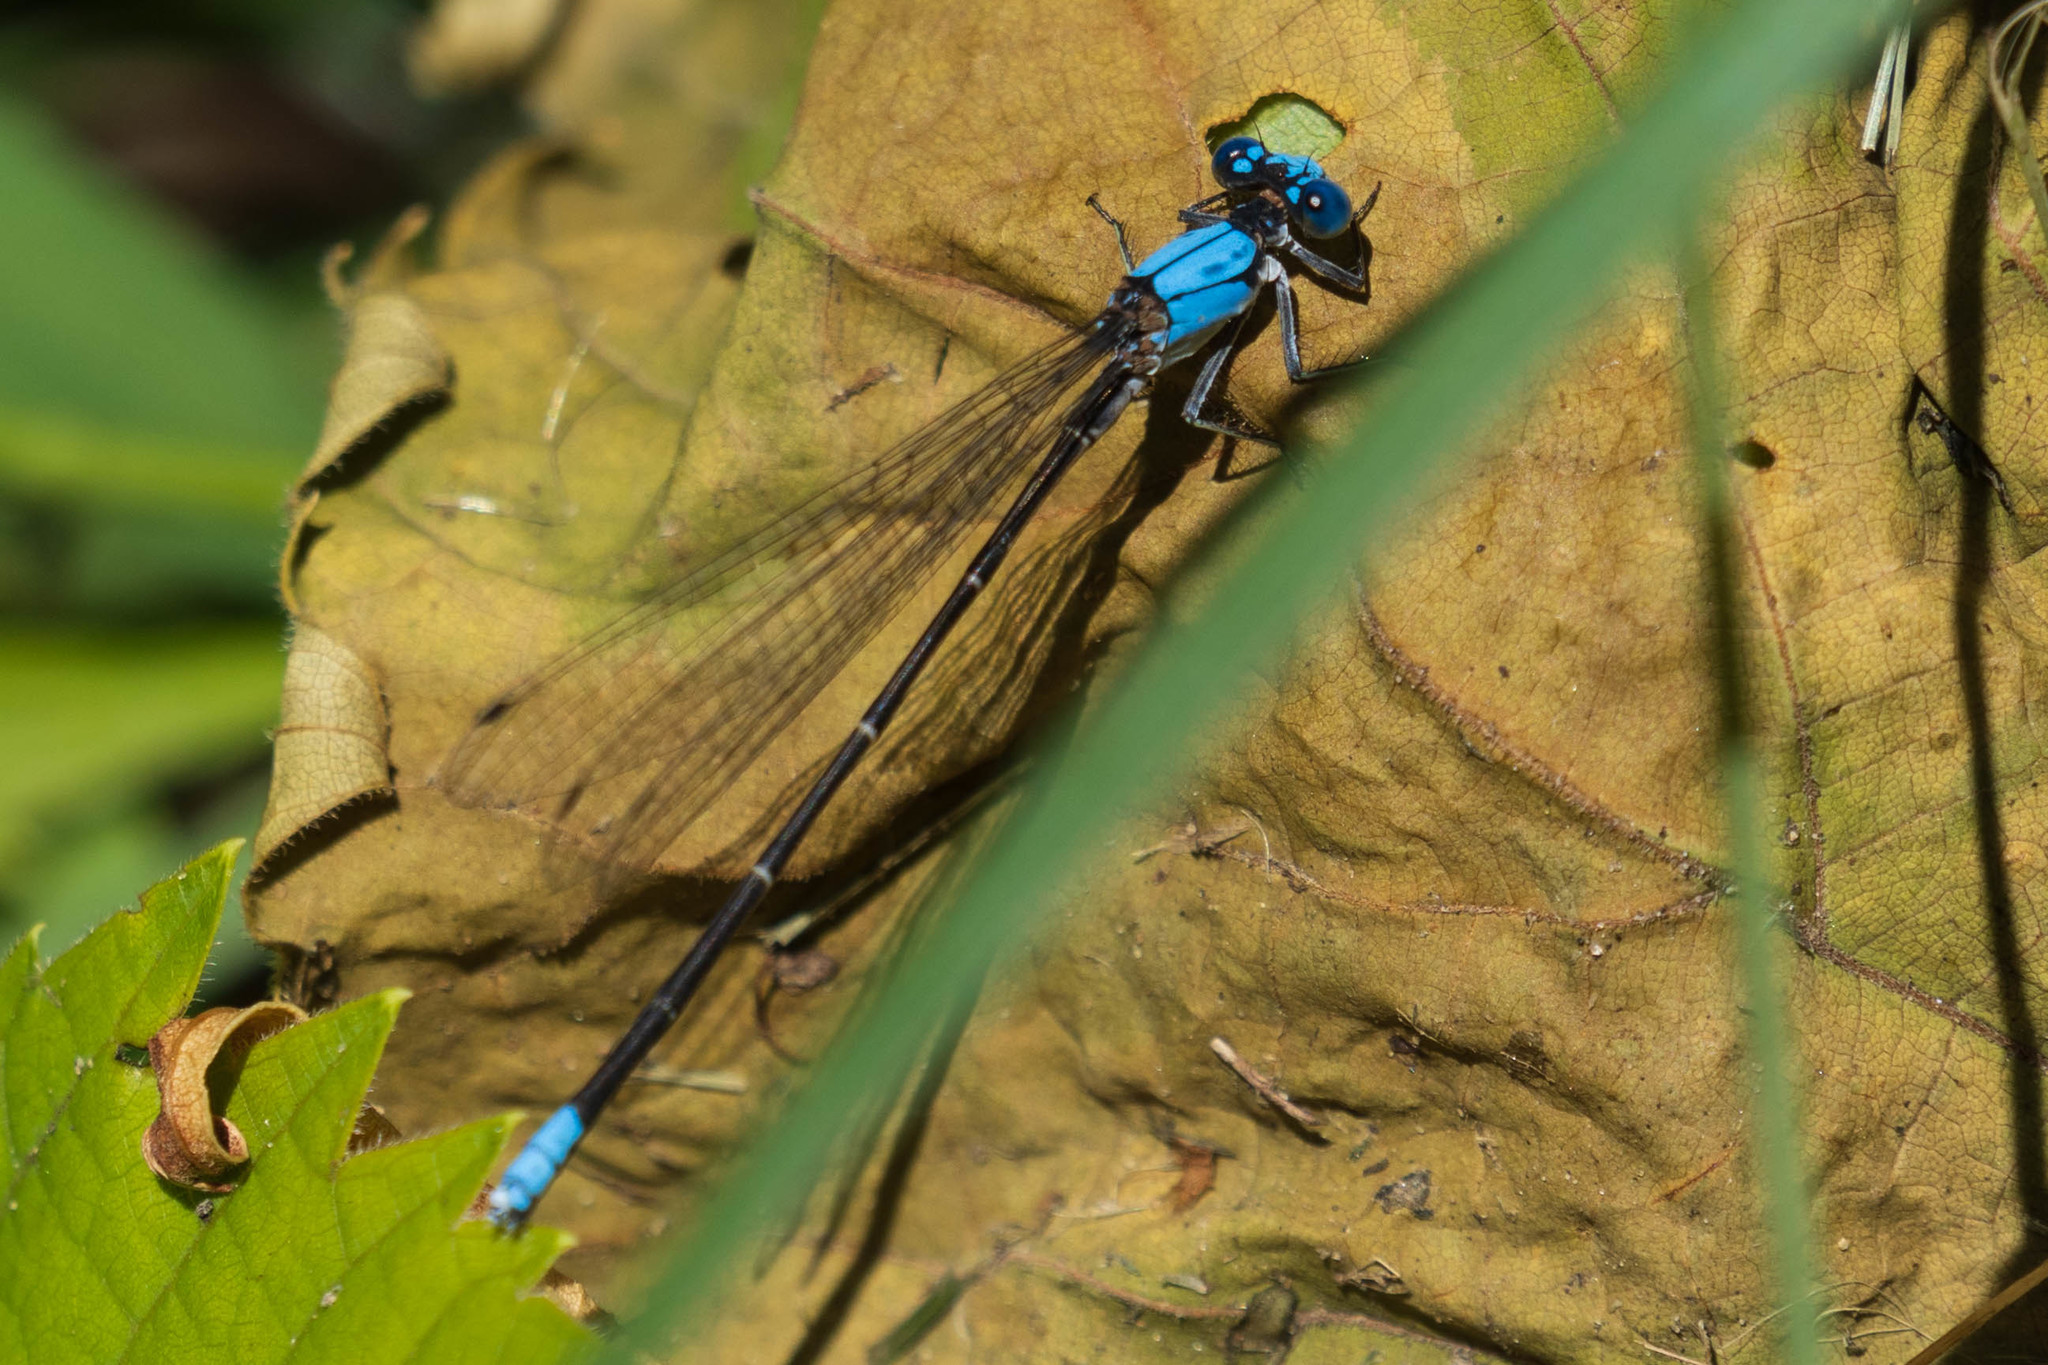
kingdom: Animalia
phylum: Arthropoda
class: Insecta
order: Odonata
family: Coenagrionidae
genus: Argia
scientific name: Argia apicalis
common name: Blue-fronted dancer
